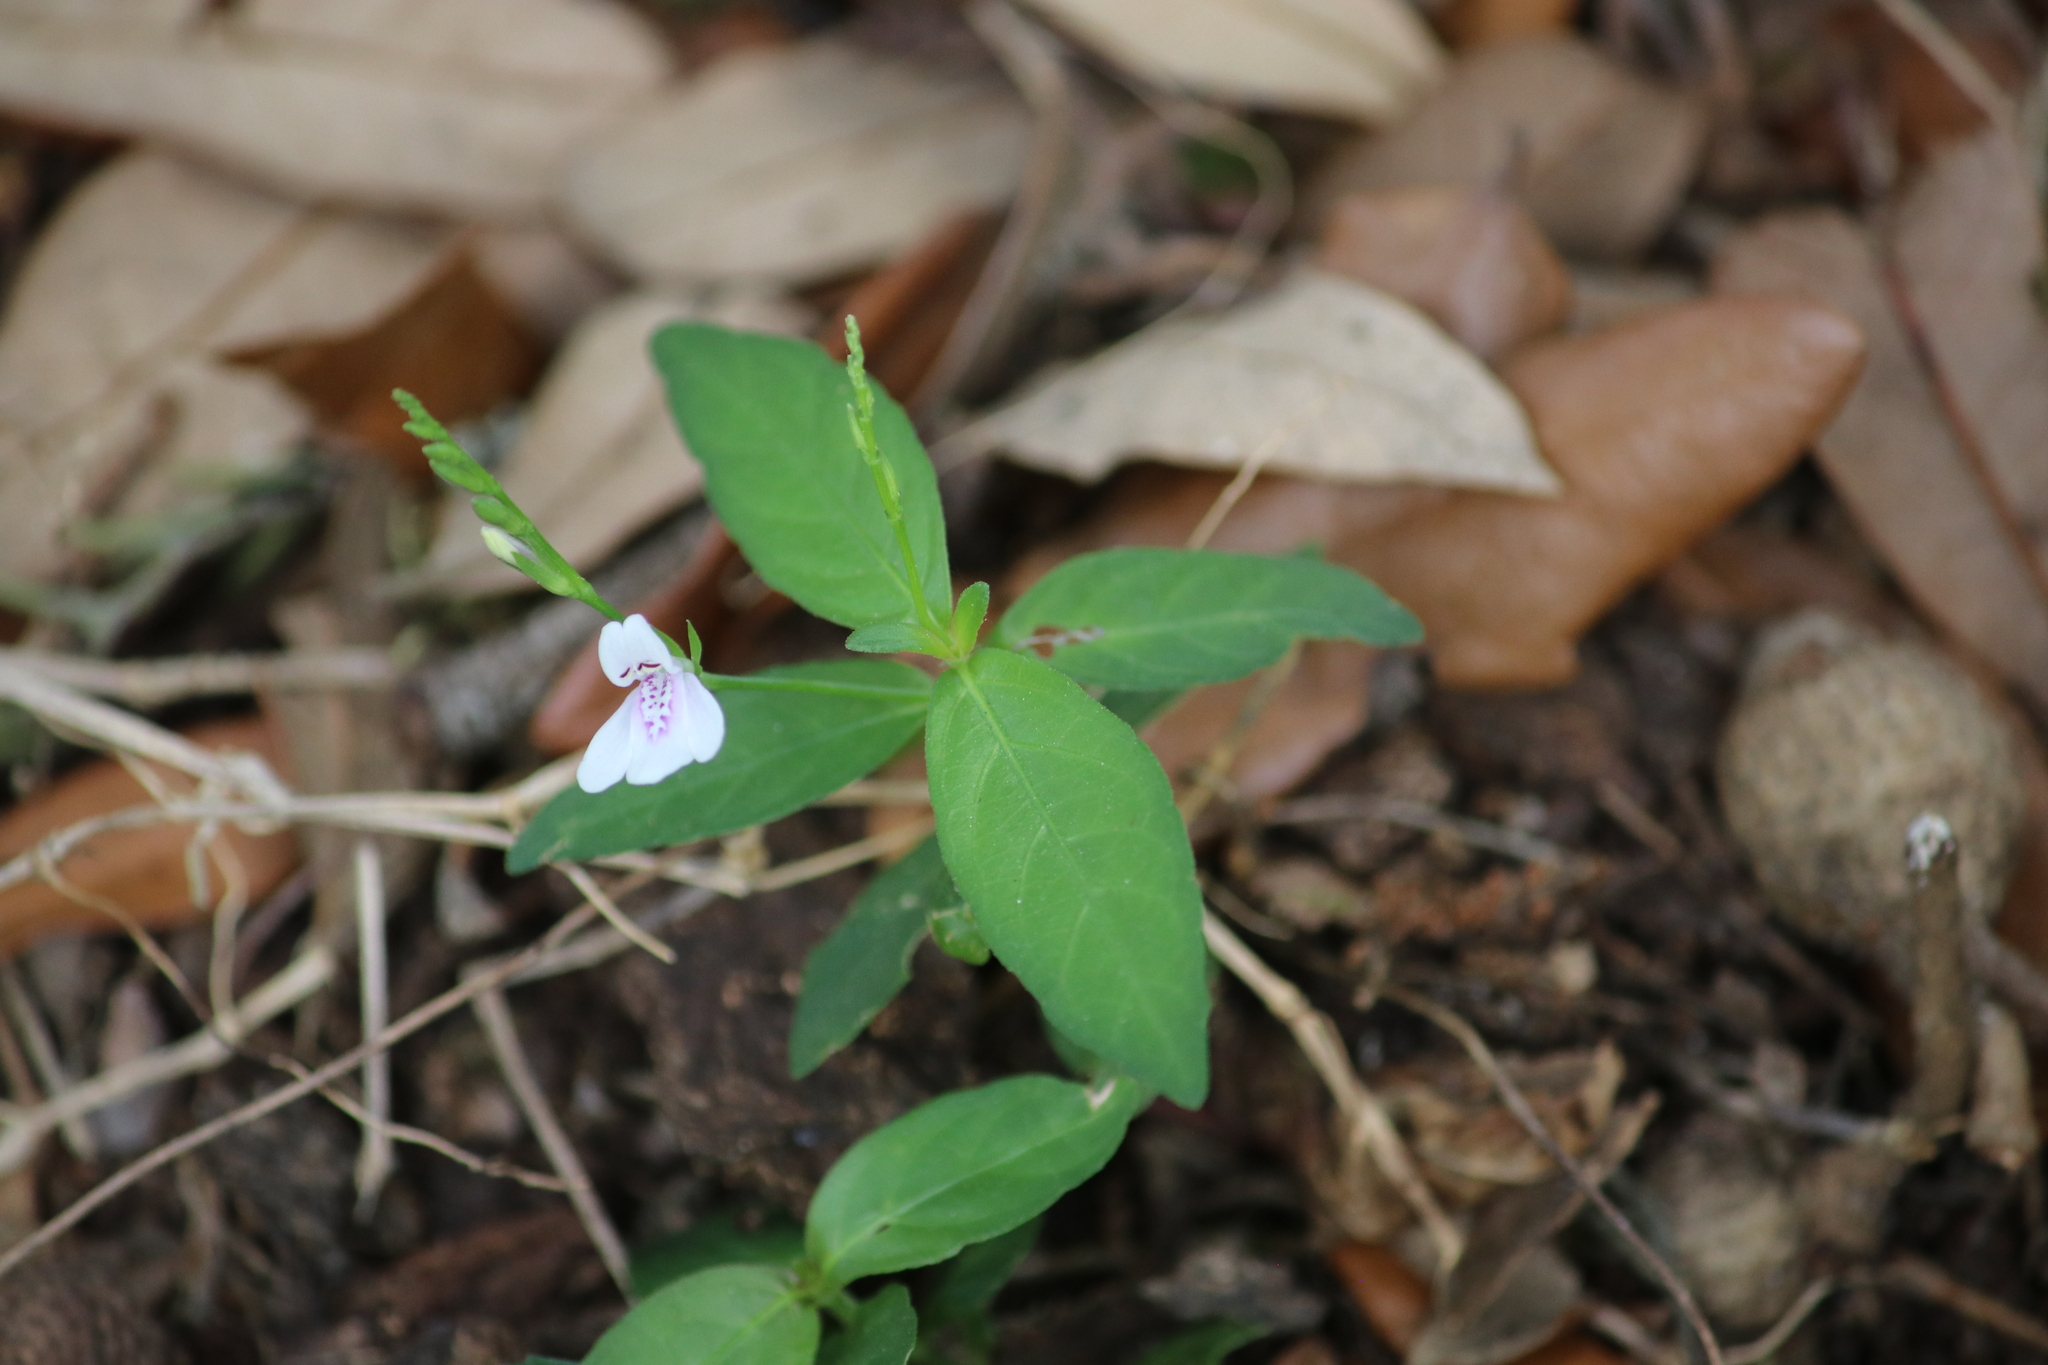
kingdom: Plantae
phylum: Tracheophyta
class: Magnoliopsida
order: Lamiales
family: Acanthaceae
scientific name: Acanthaceae
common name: Acanthaceae
